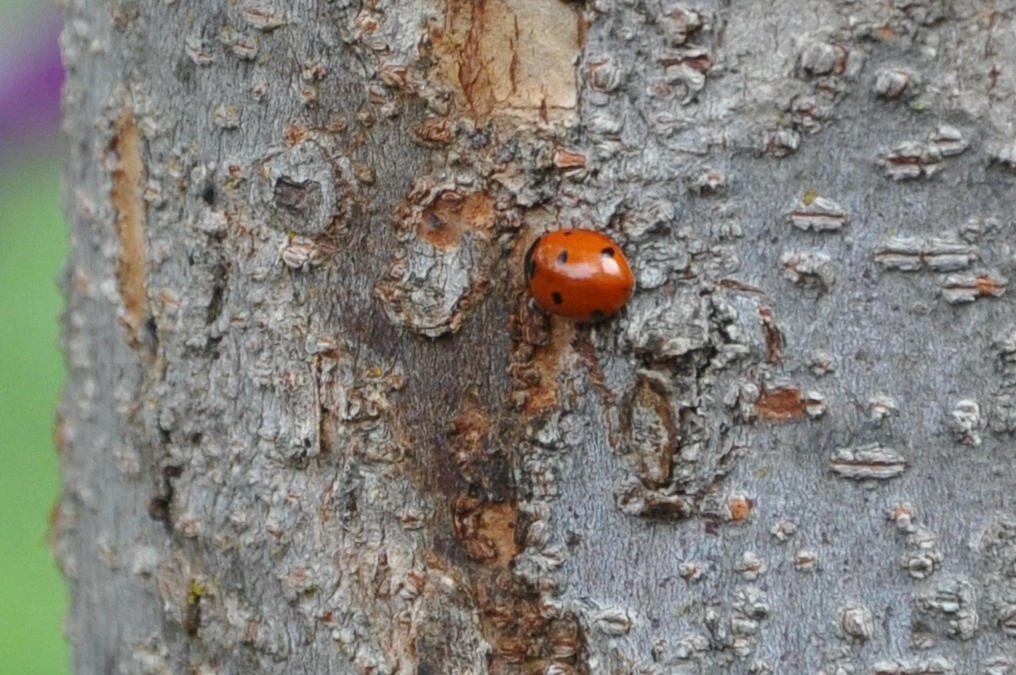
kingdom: Animalia
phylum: Arthropoda
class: Insecta
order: Coleoptera
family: Coccinellidae
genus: Coccinella
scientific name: Coccinella septempunctata
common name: Sevenspotted lady beetle
